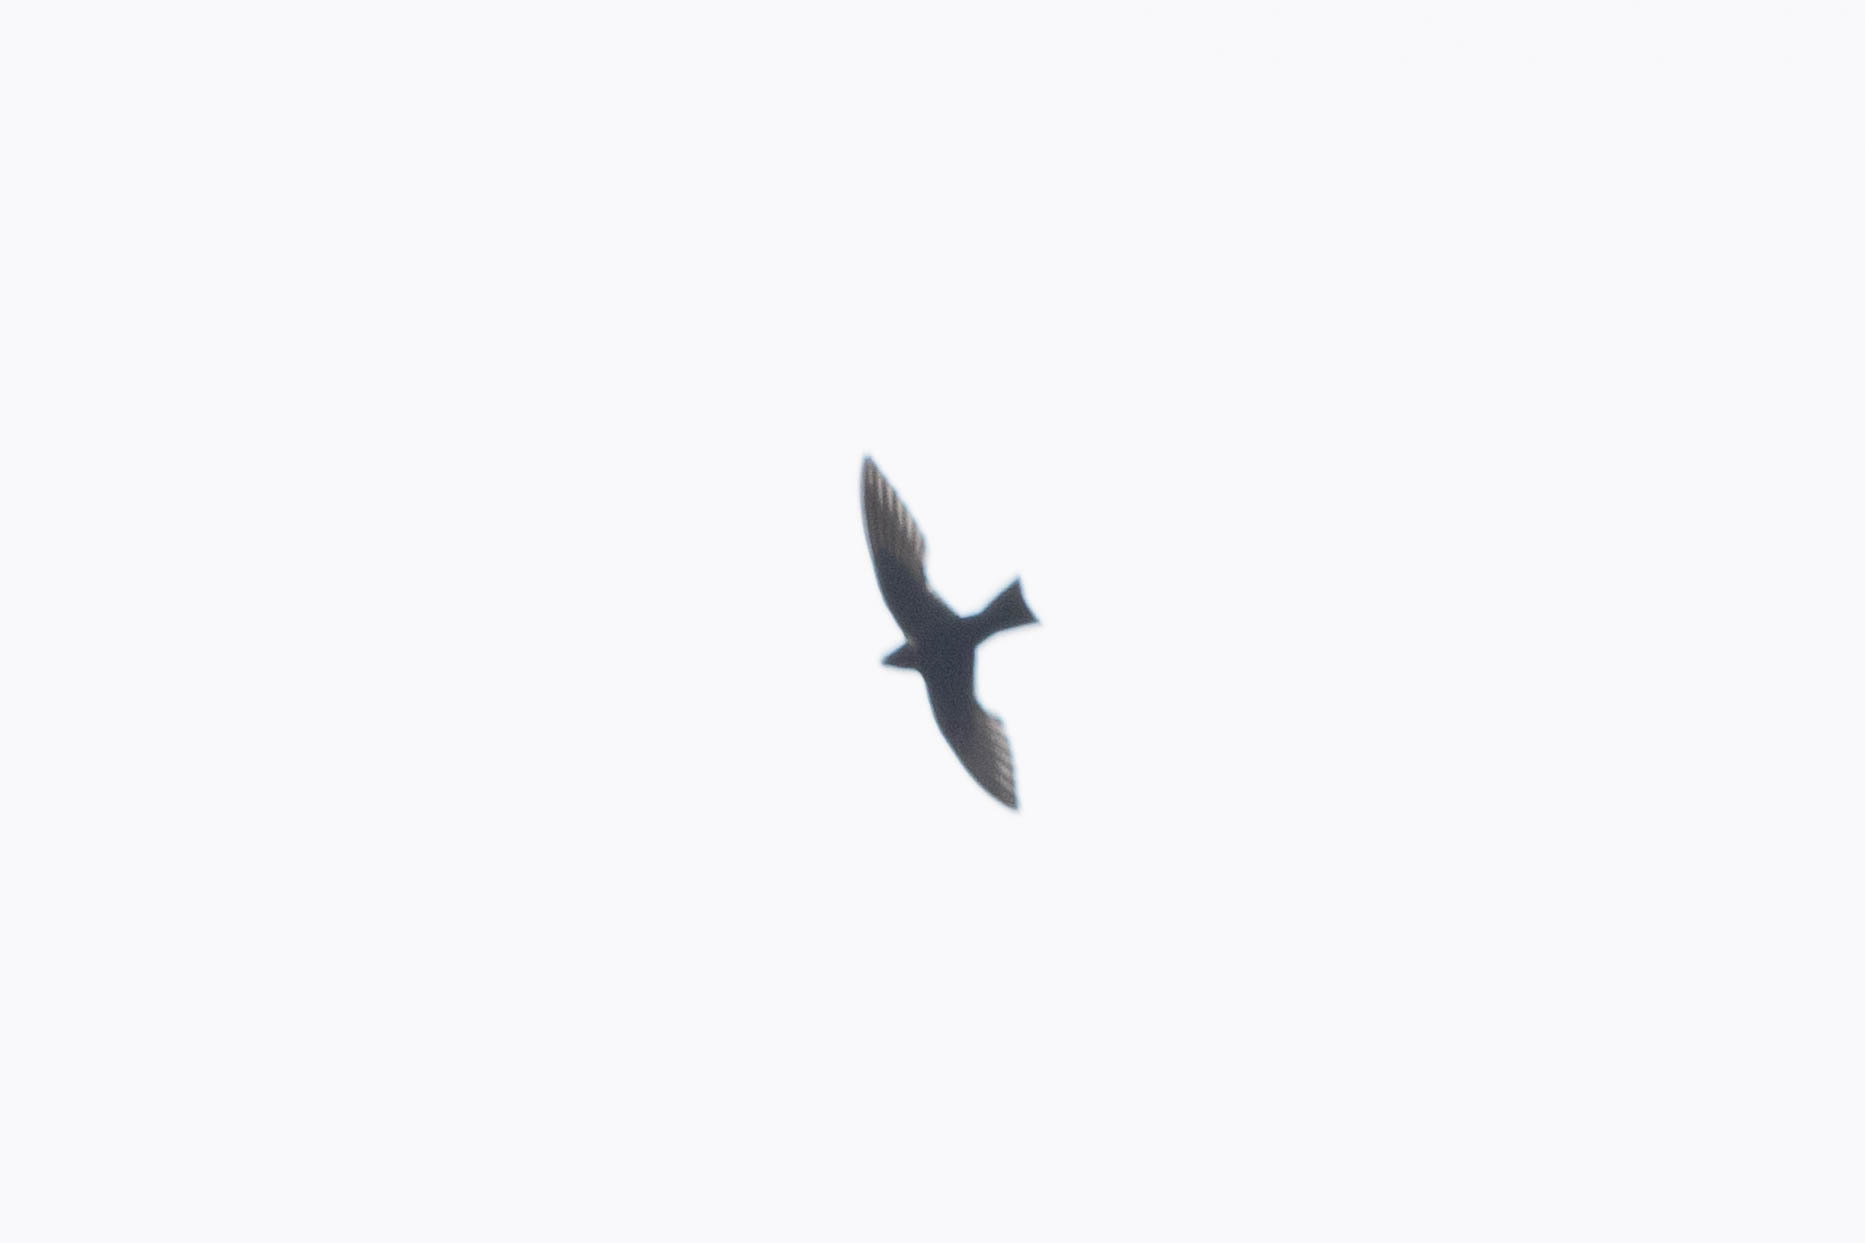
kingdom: Animalia
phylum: Chordata
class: Aves
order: Apodiformes
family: Apodidae
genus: Streptoprocne
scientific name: Streptoprocne zonaris
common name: White-collared swift
